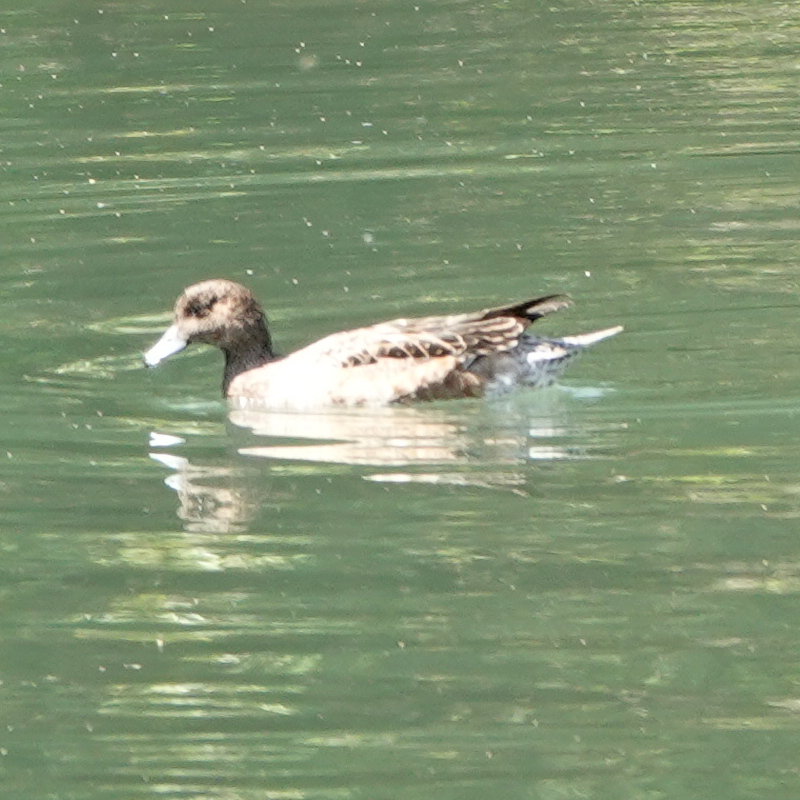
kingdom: Animalia
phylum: Chordata
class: Aves
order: Anseriformes
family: Anatidae
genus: Mareca
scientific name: Mareca penelope
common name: Eurasian wigeon
